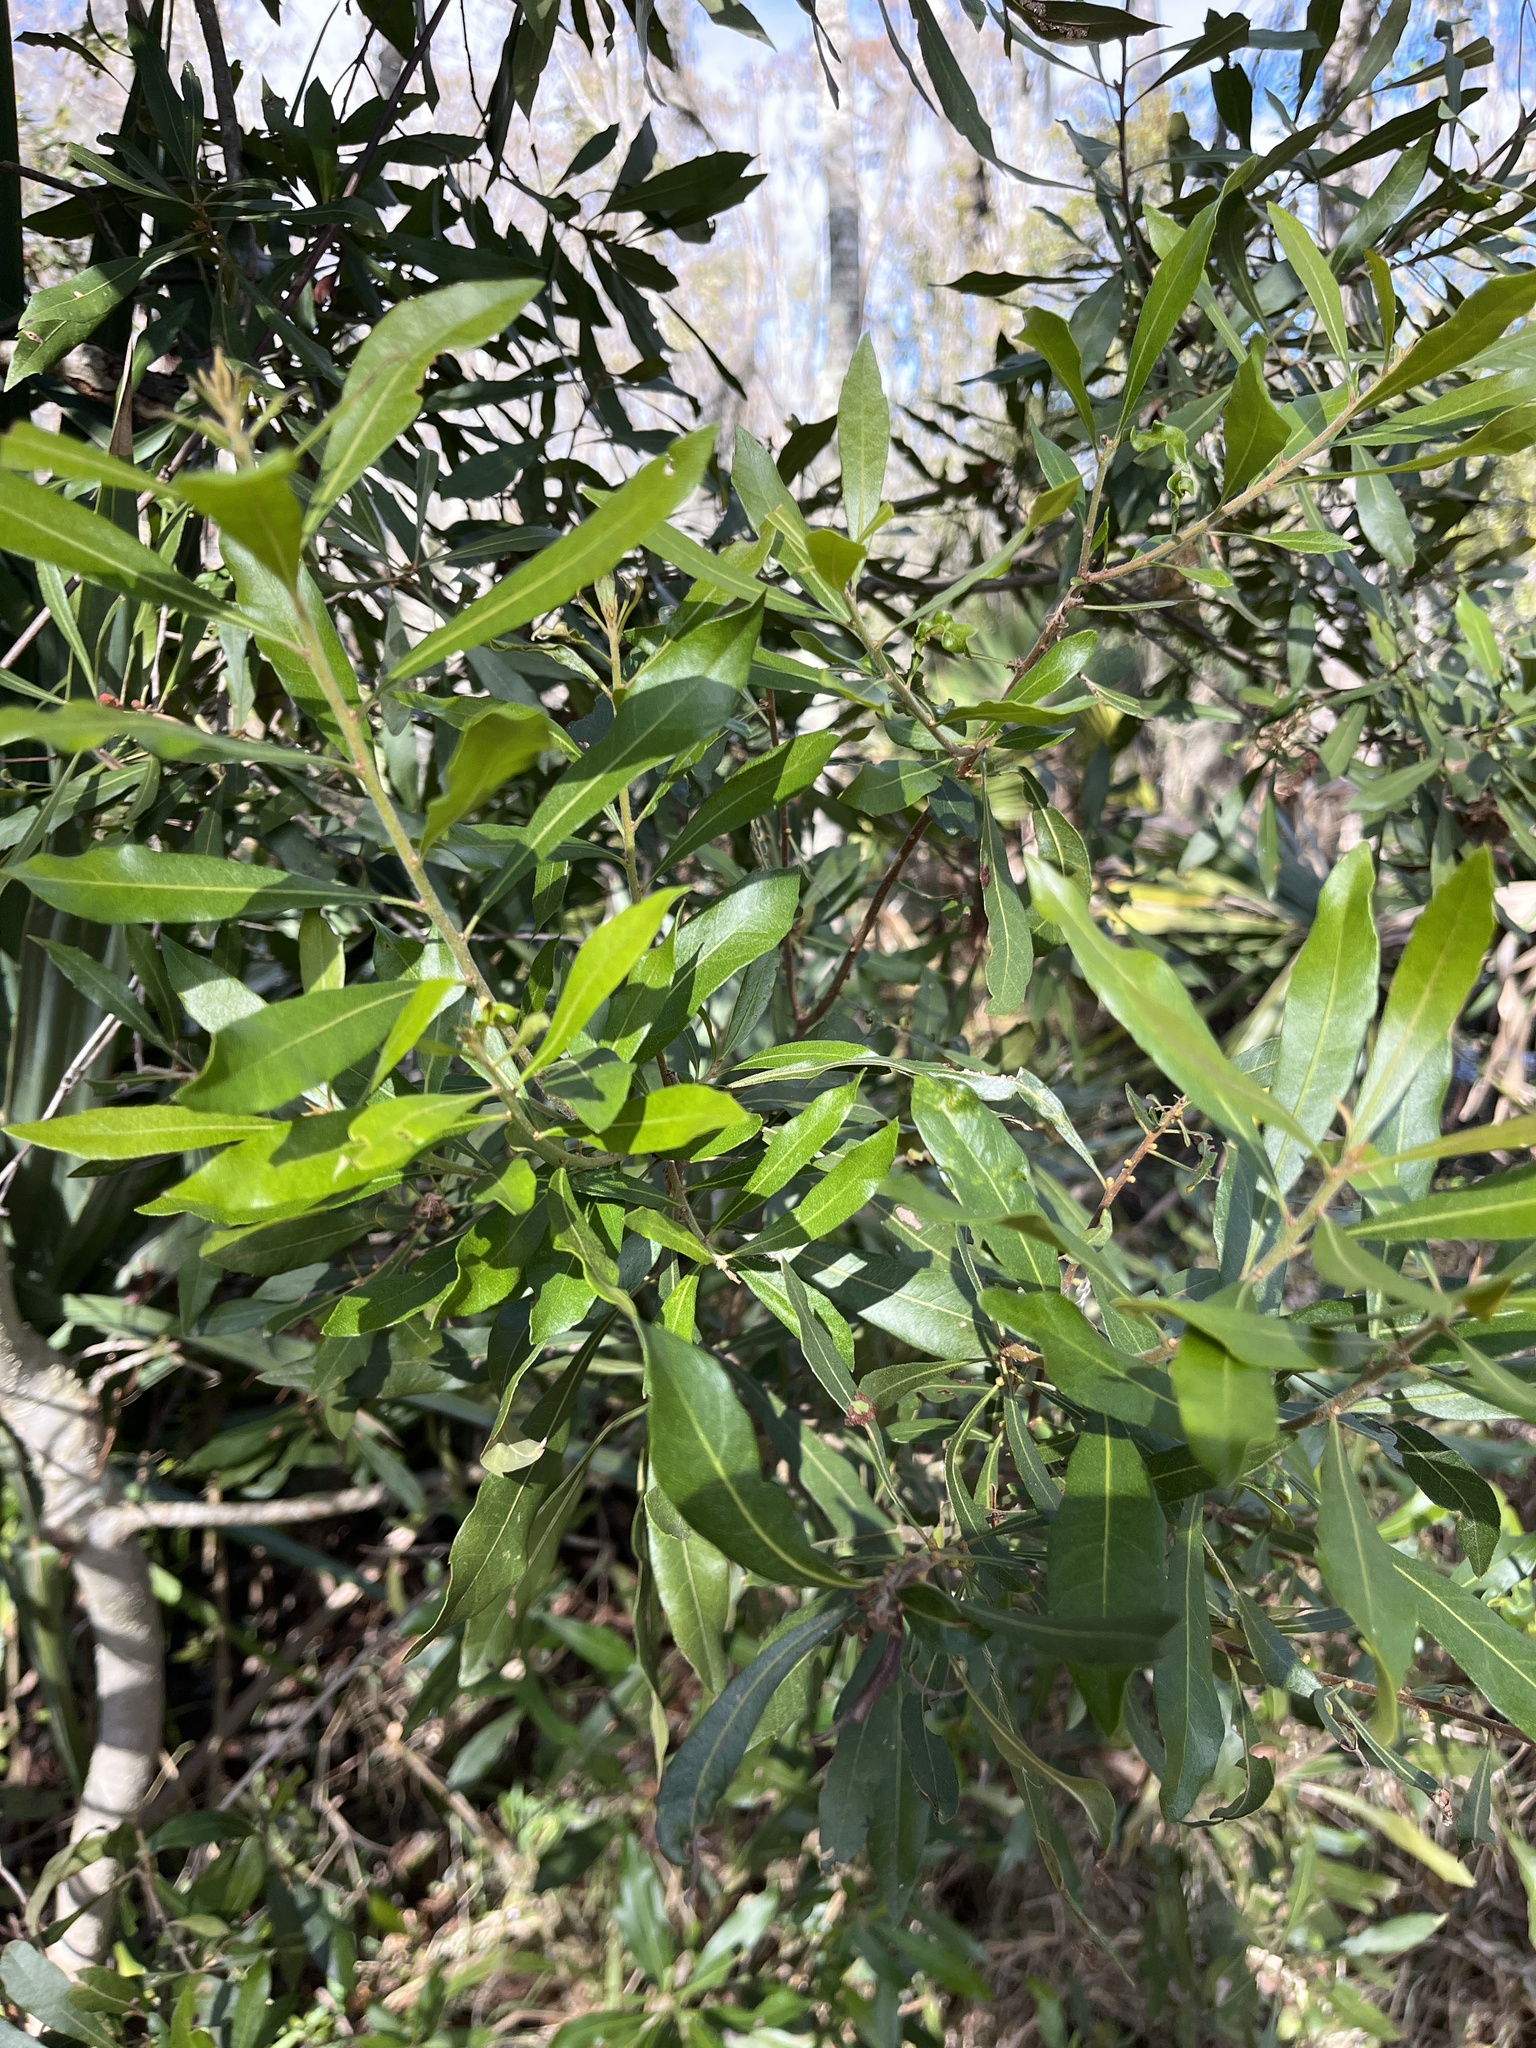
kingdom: Plantae
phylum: Tracheophyta
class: Magnoliopsida
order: Fagales
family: Myricaceae
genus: Morella
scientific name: Morella cerifera
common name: Wax myrtle
